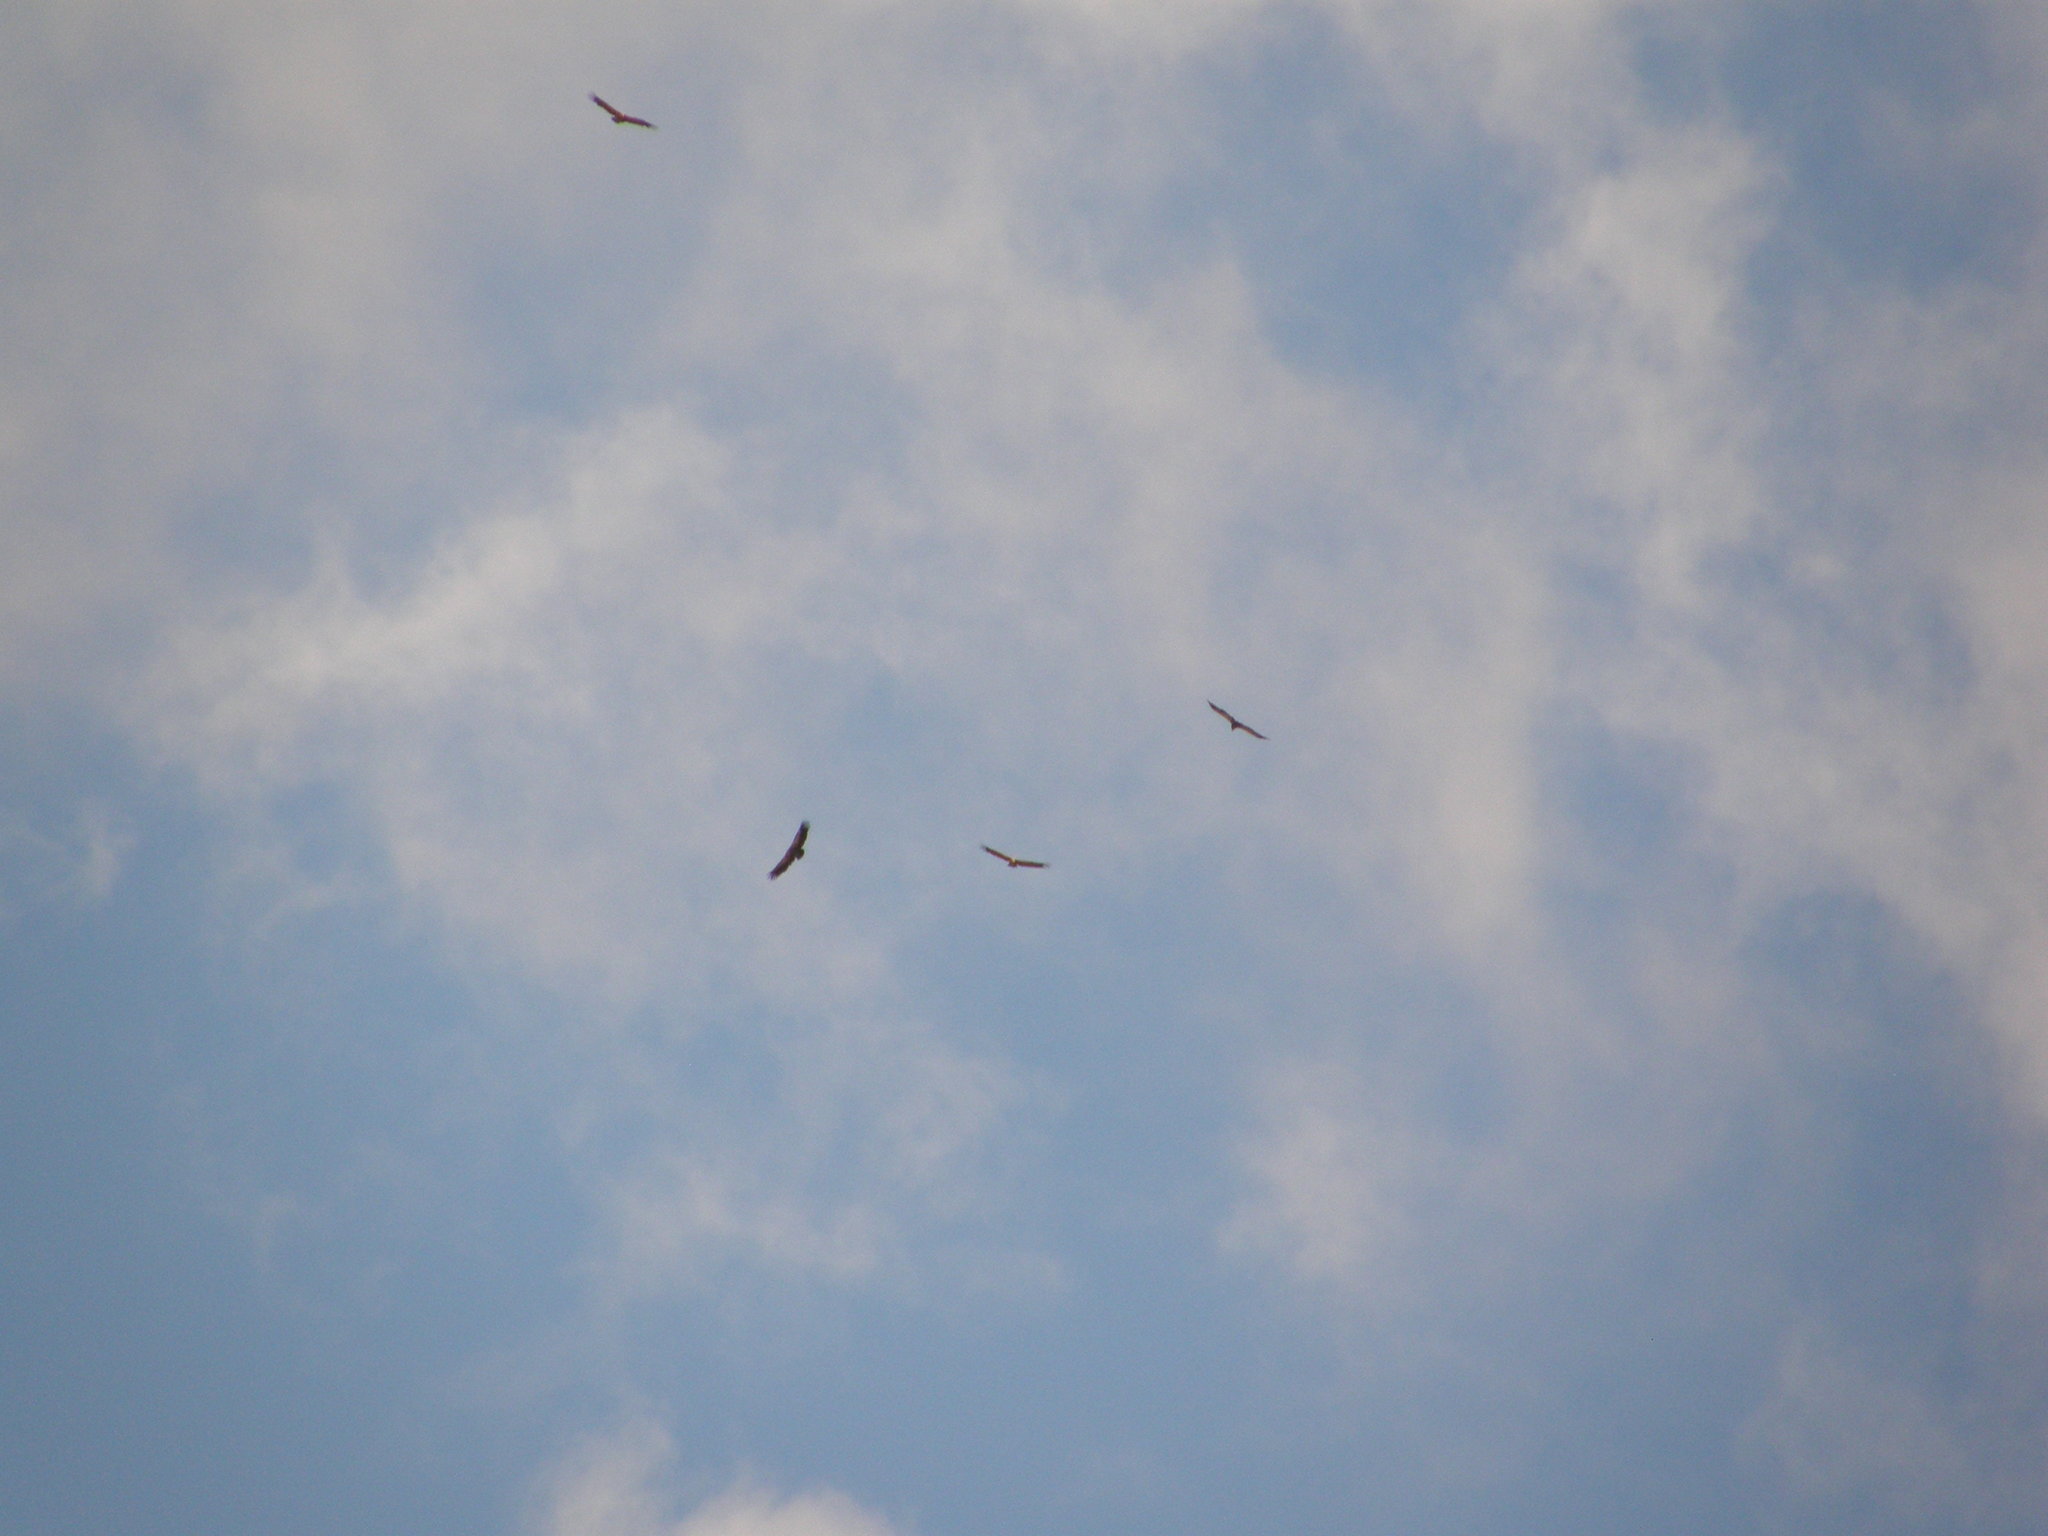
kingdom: Animalia
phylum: Chordata
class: Aves
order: Accipitriformes
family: Accipitridae
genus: Gyps
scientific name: Gyps fulvus
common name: Griffon vulture
